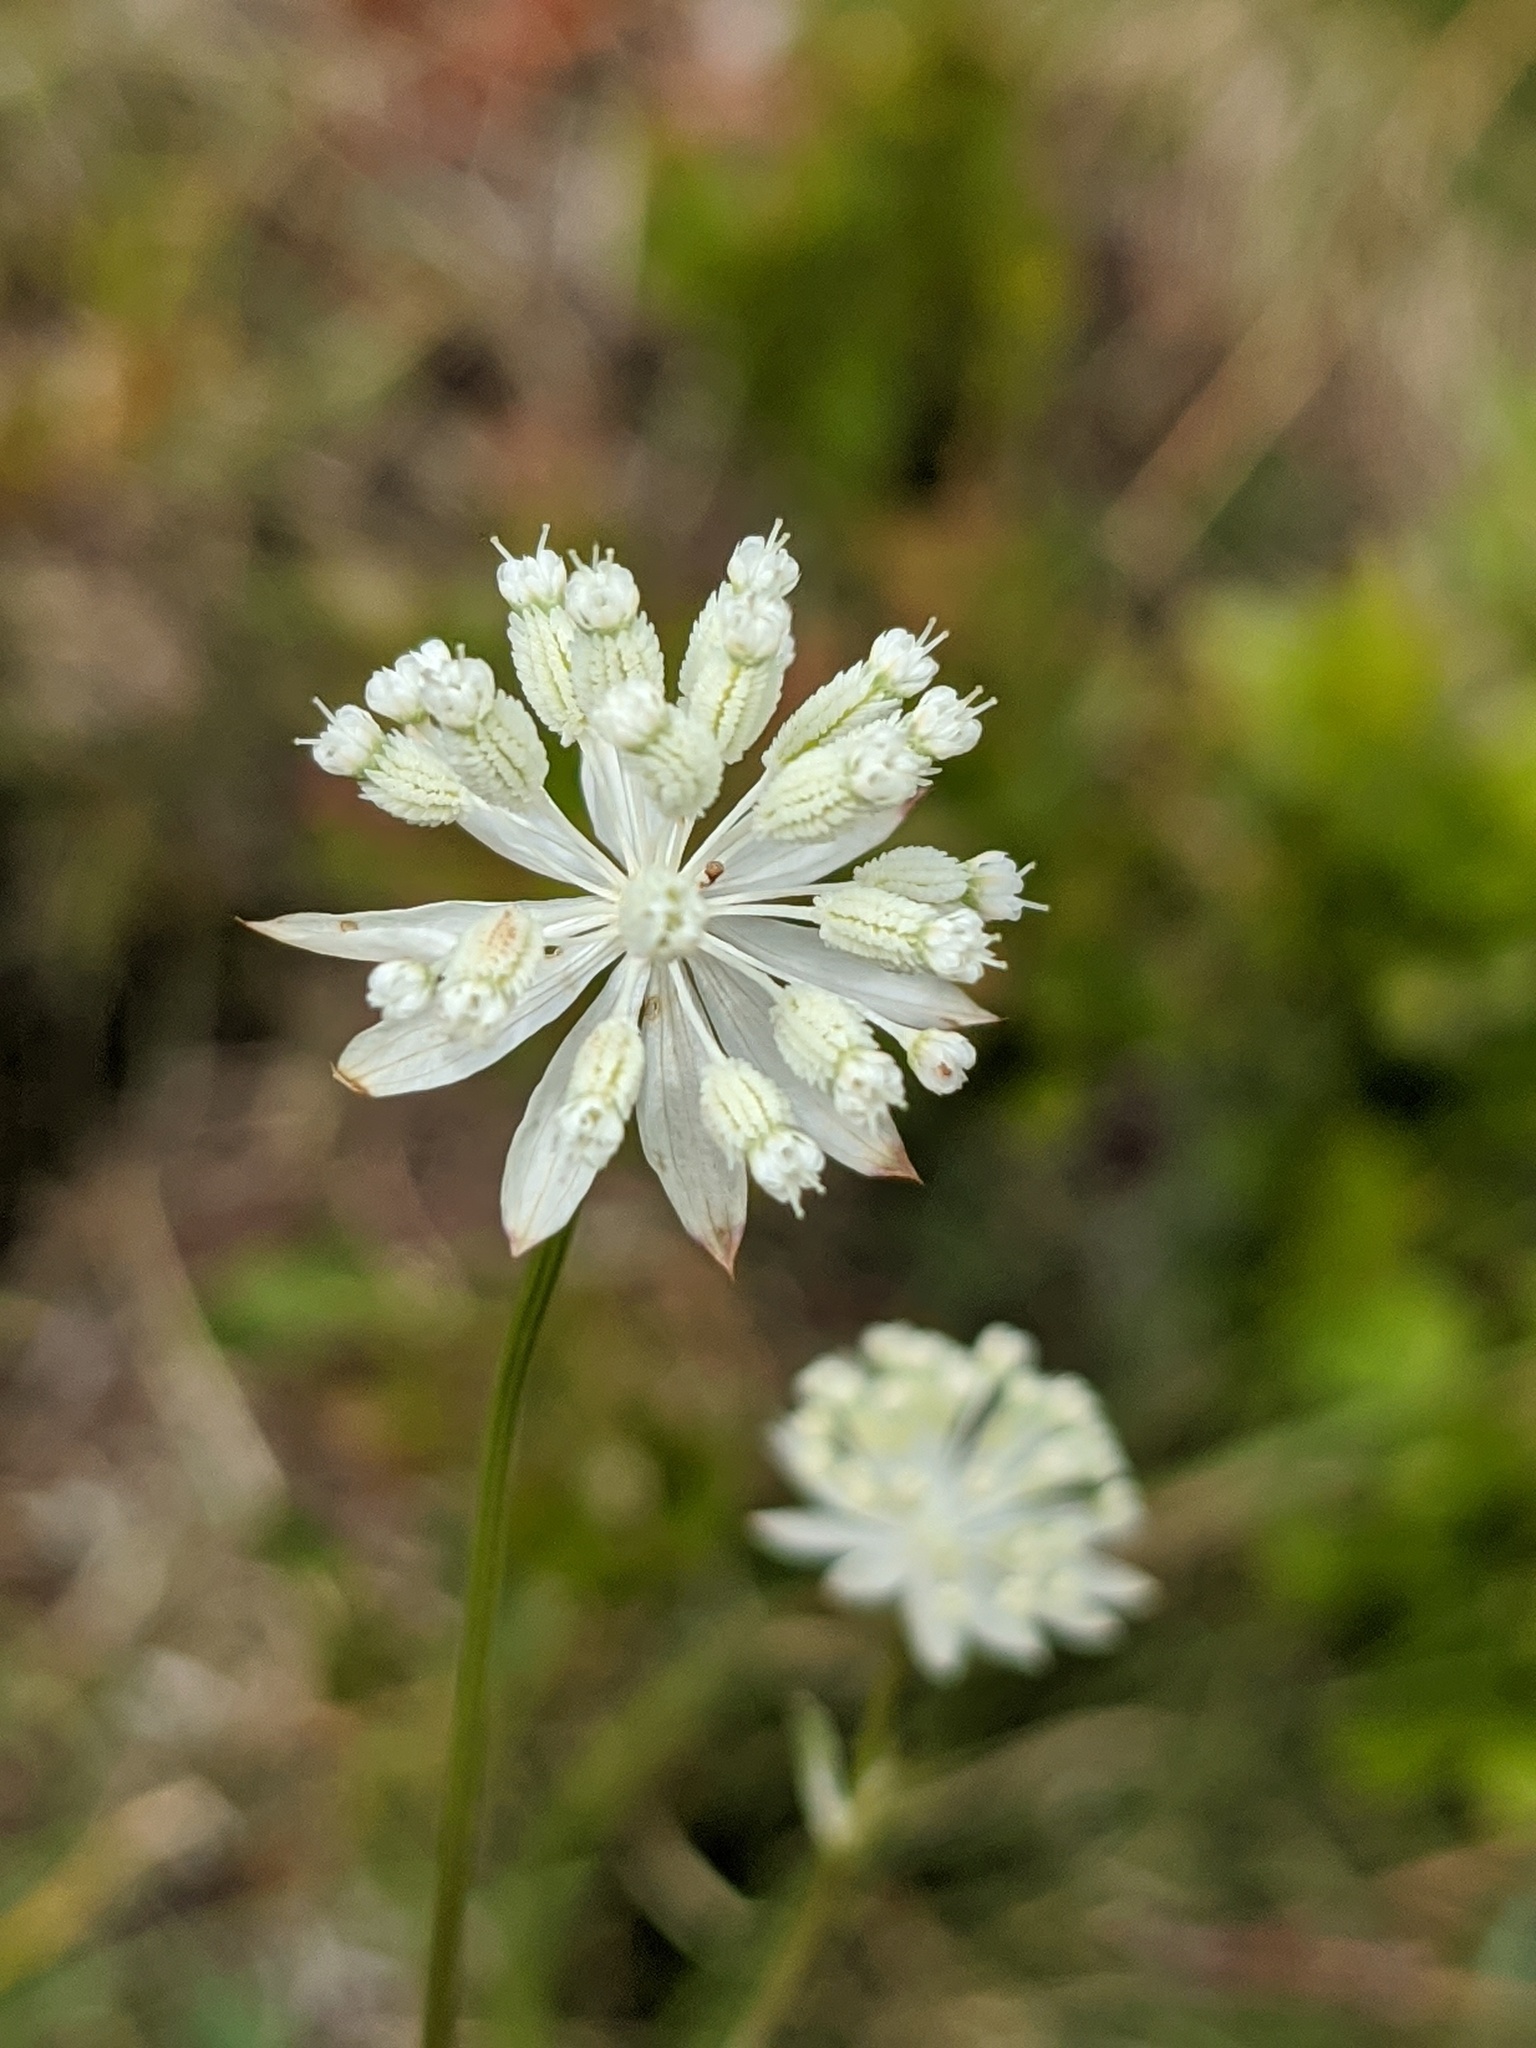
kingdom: Plantae
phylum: Tracheophyta
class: Magnoliopsida
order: Apiales
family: Apiaceae
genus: Astrantia
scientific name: Astrantia minor
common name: Lesser masterwort
